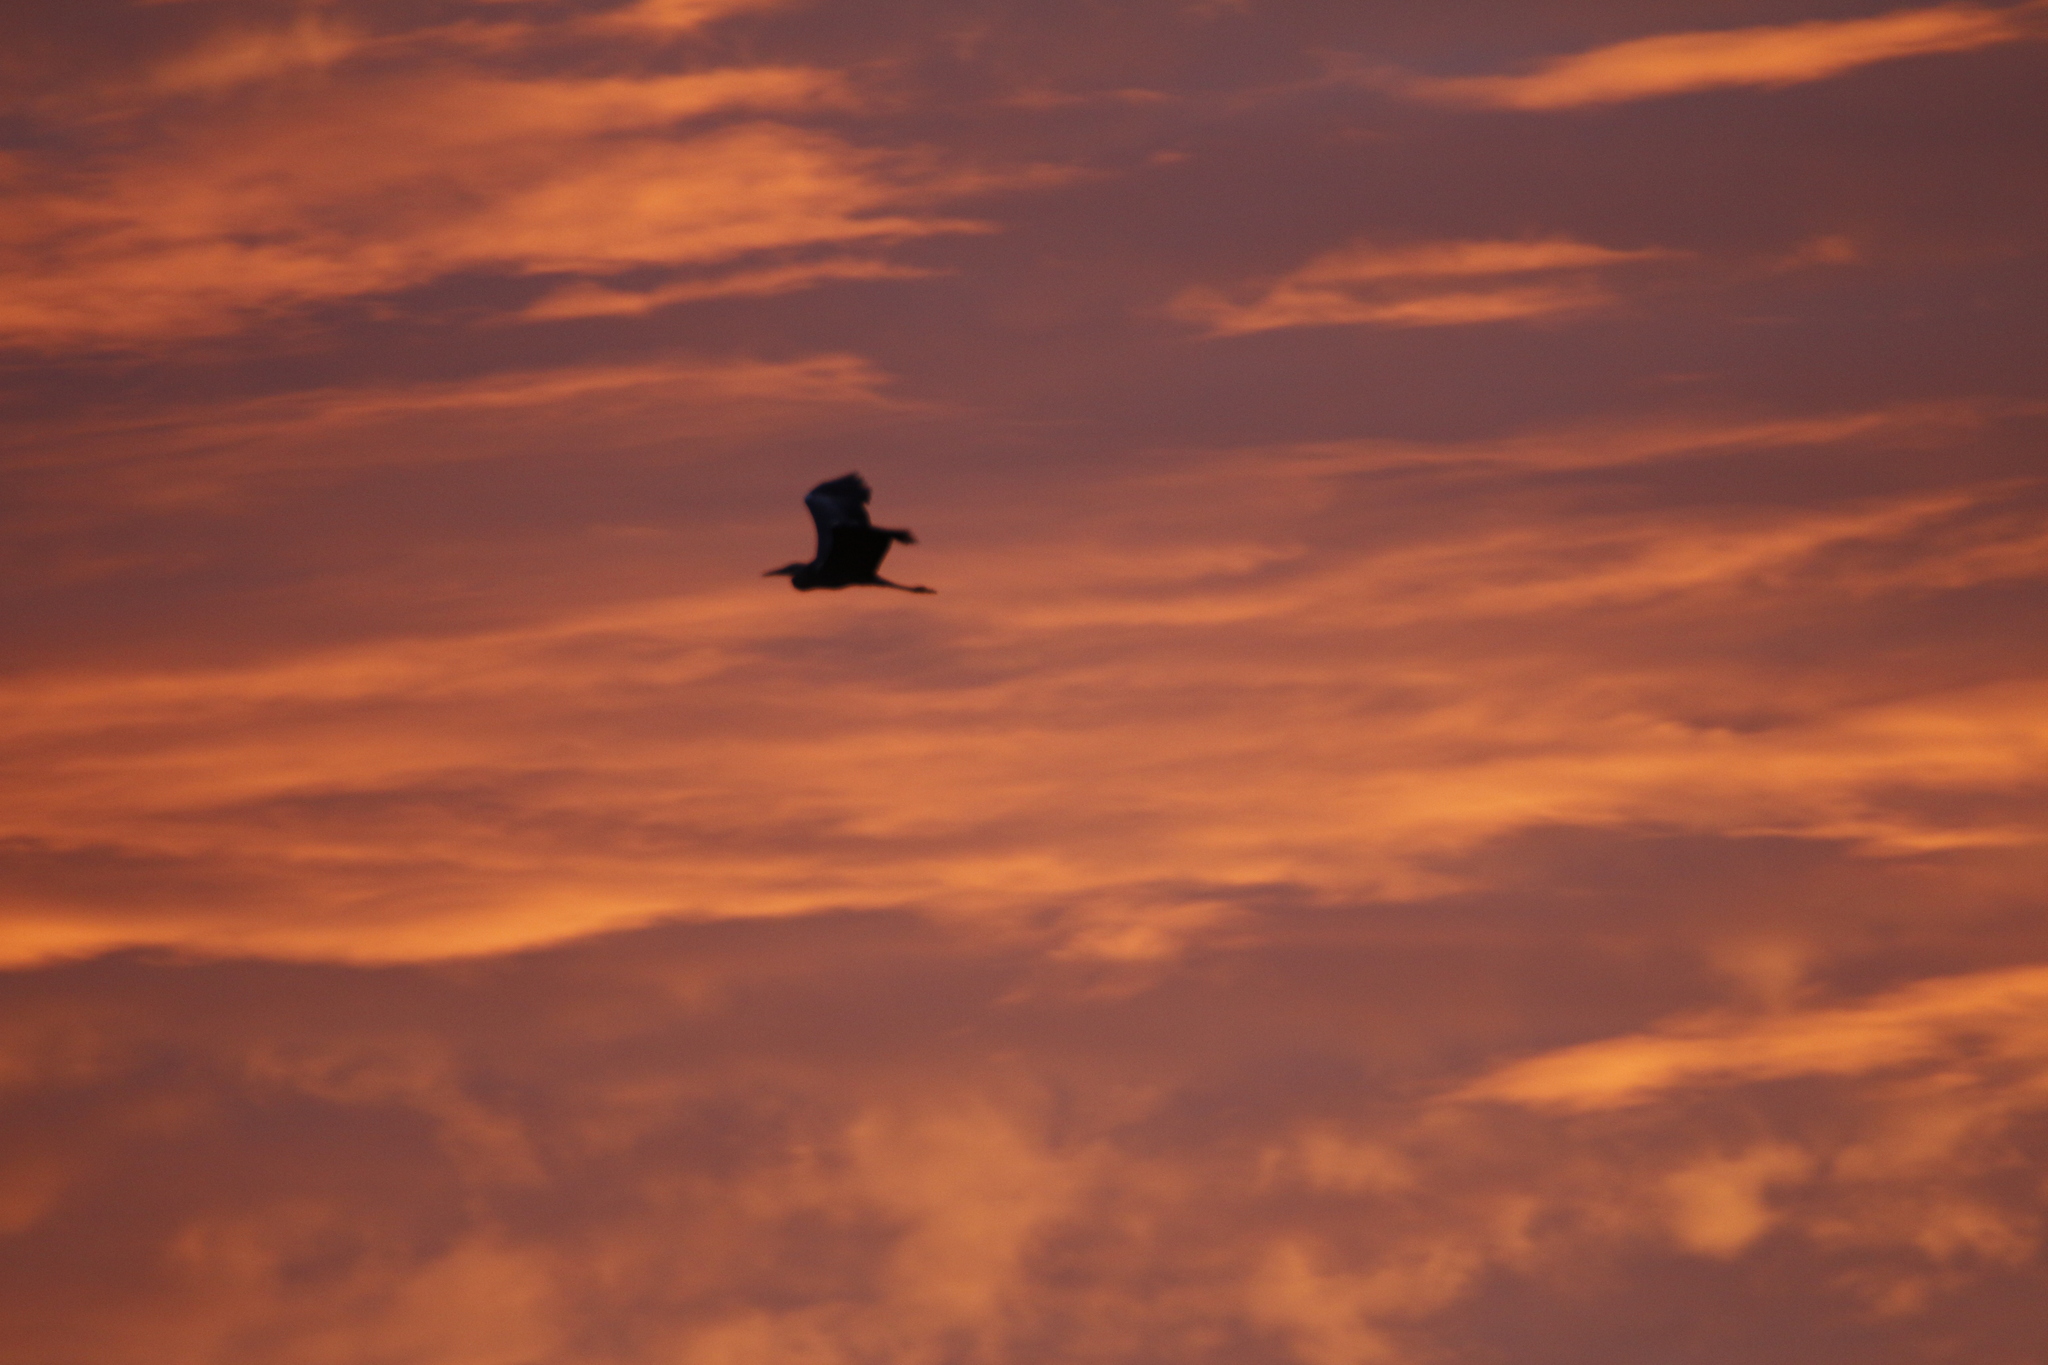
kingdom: Animalia
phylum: Chordata
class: Aves
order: Pelecaniformes
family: Ardeidae
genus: Ardea
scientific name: Ardea cinerea
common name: Grey heron
